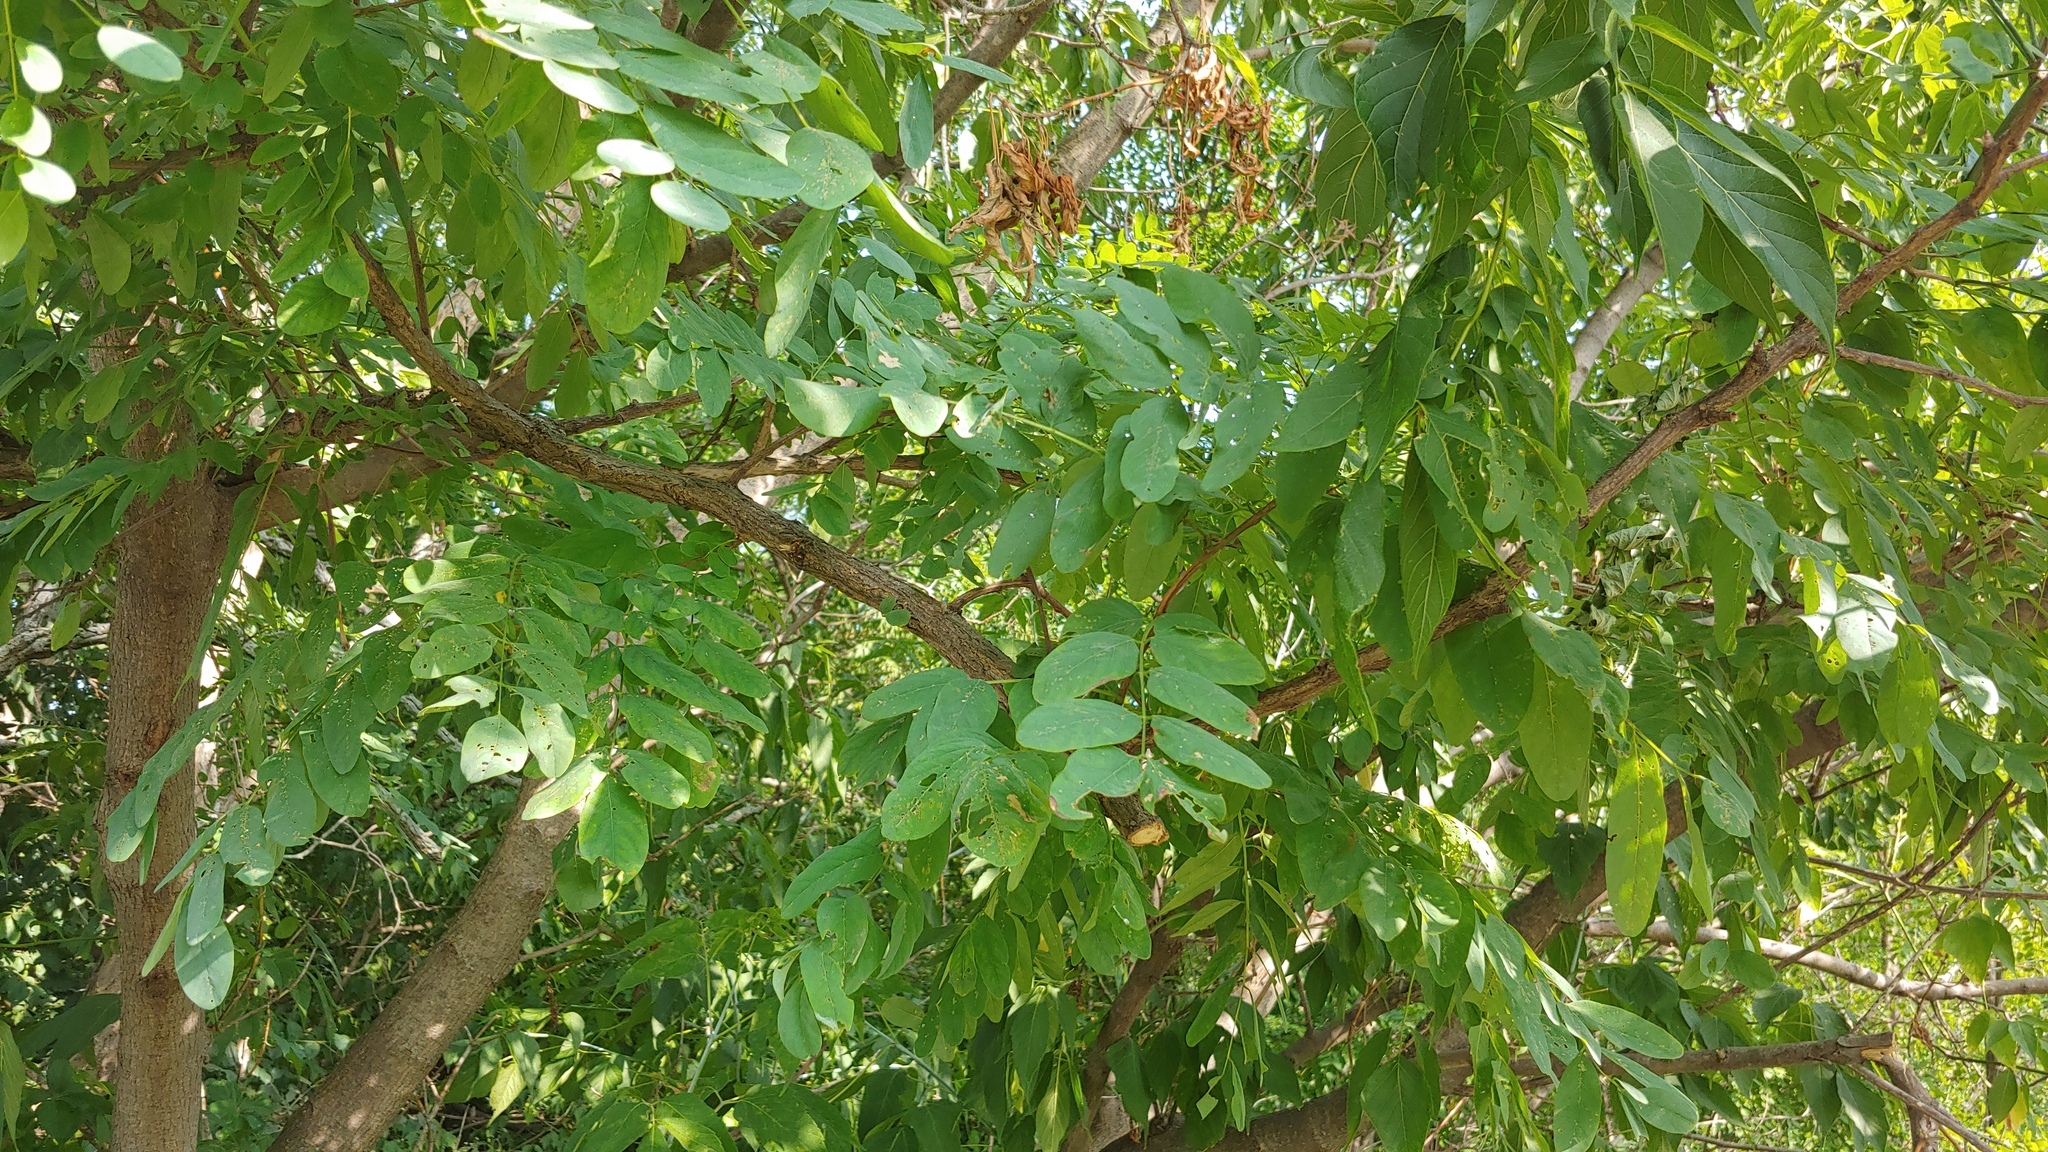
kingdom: Plantae
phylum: Tracheophyta
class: Magnoliopsida
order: Fabales
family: Fabaceae
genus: Robinia
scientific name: Robinia pseudoacacia
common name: Black locust
